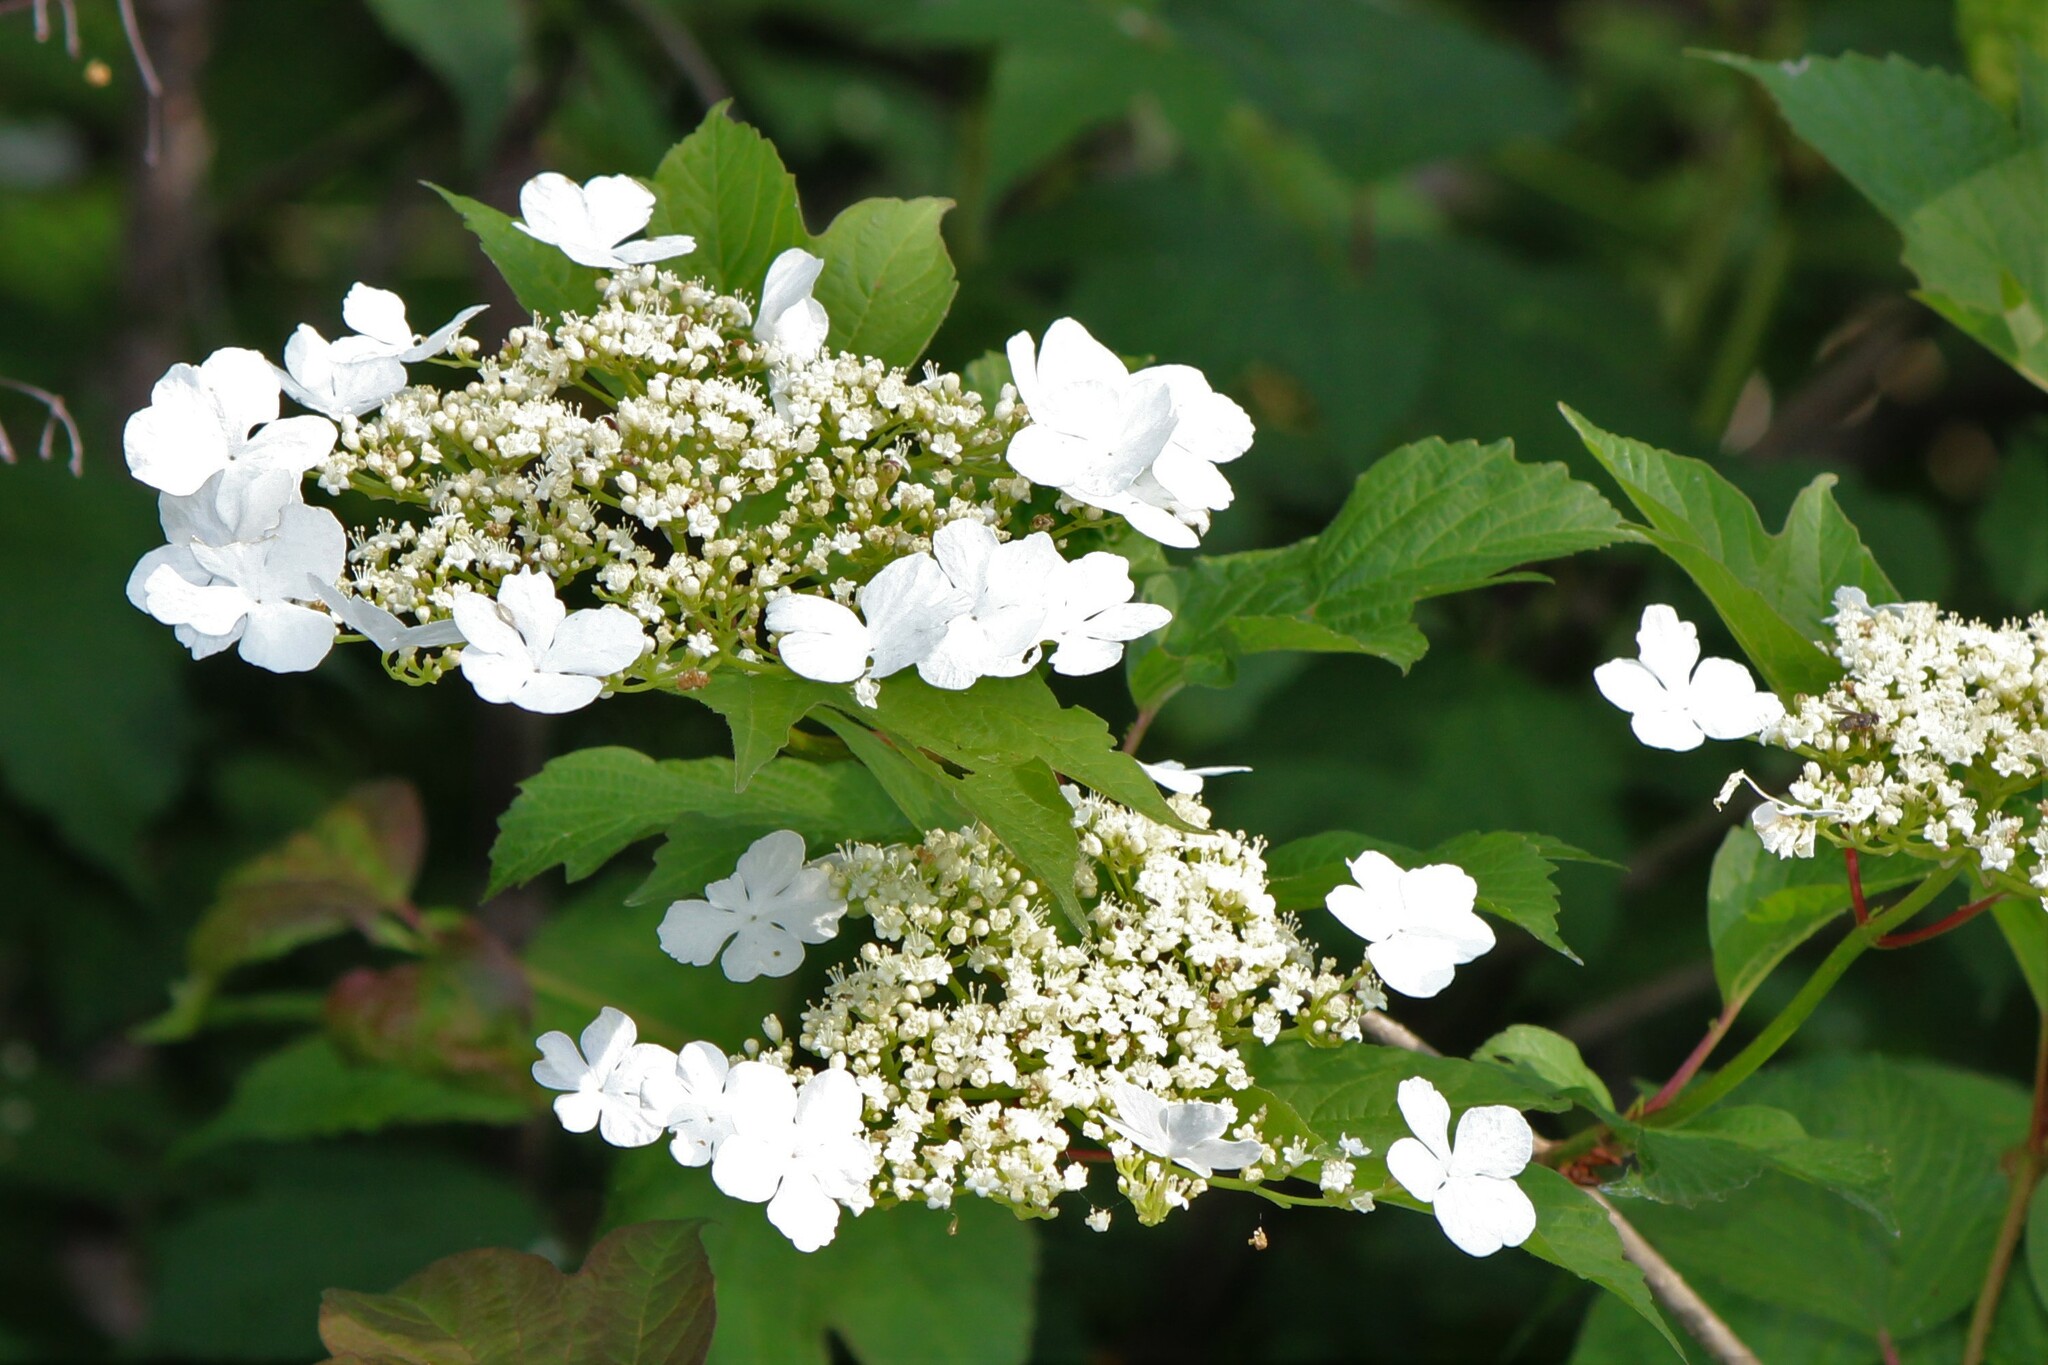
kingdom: Plantae
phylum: Tracheophyta
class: Magnoliopsida
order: Dipsacales
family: Viburnaceae
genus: Viburnum
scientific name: Viburnum opulus
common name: Guelder-rose
